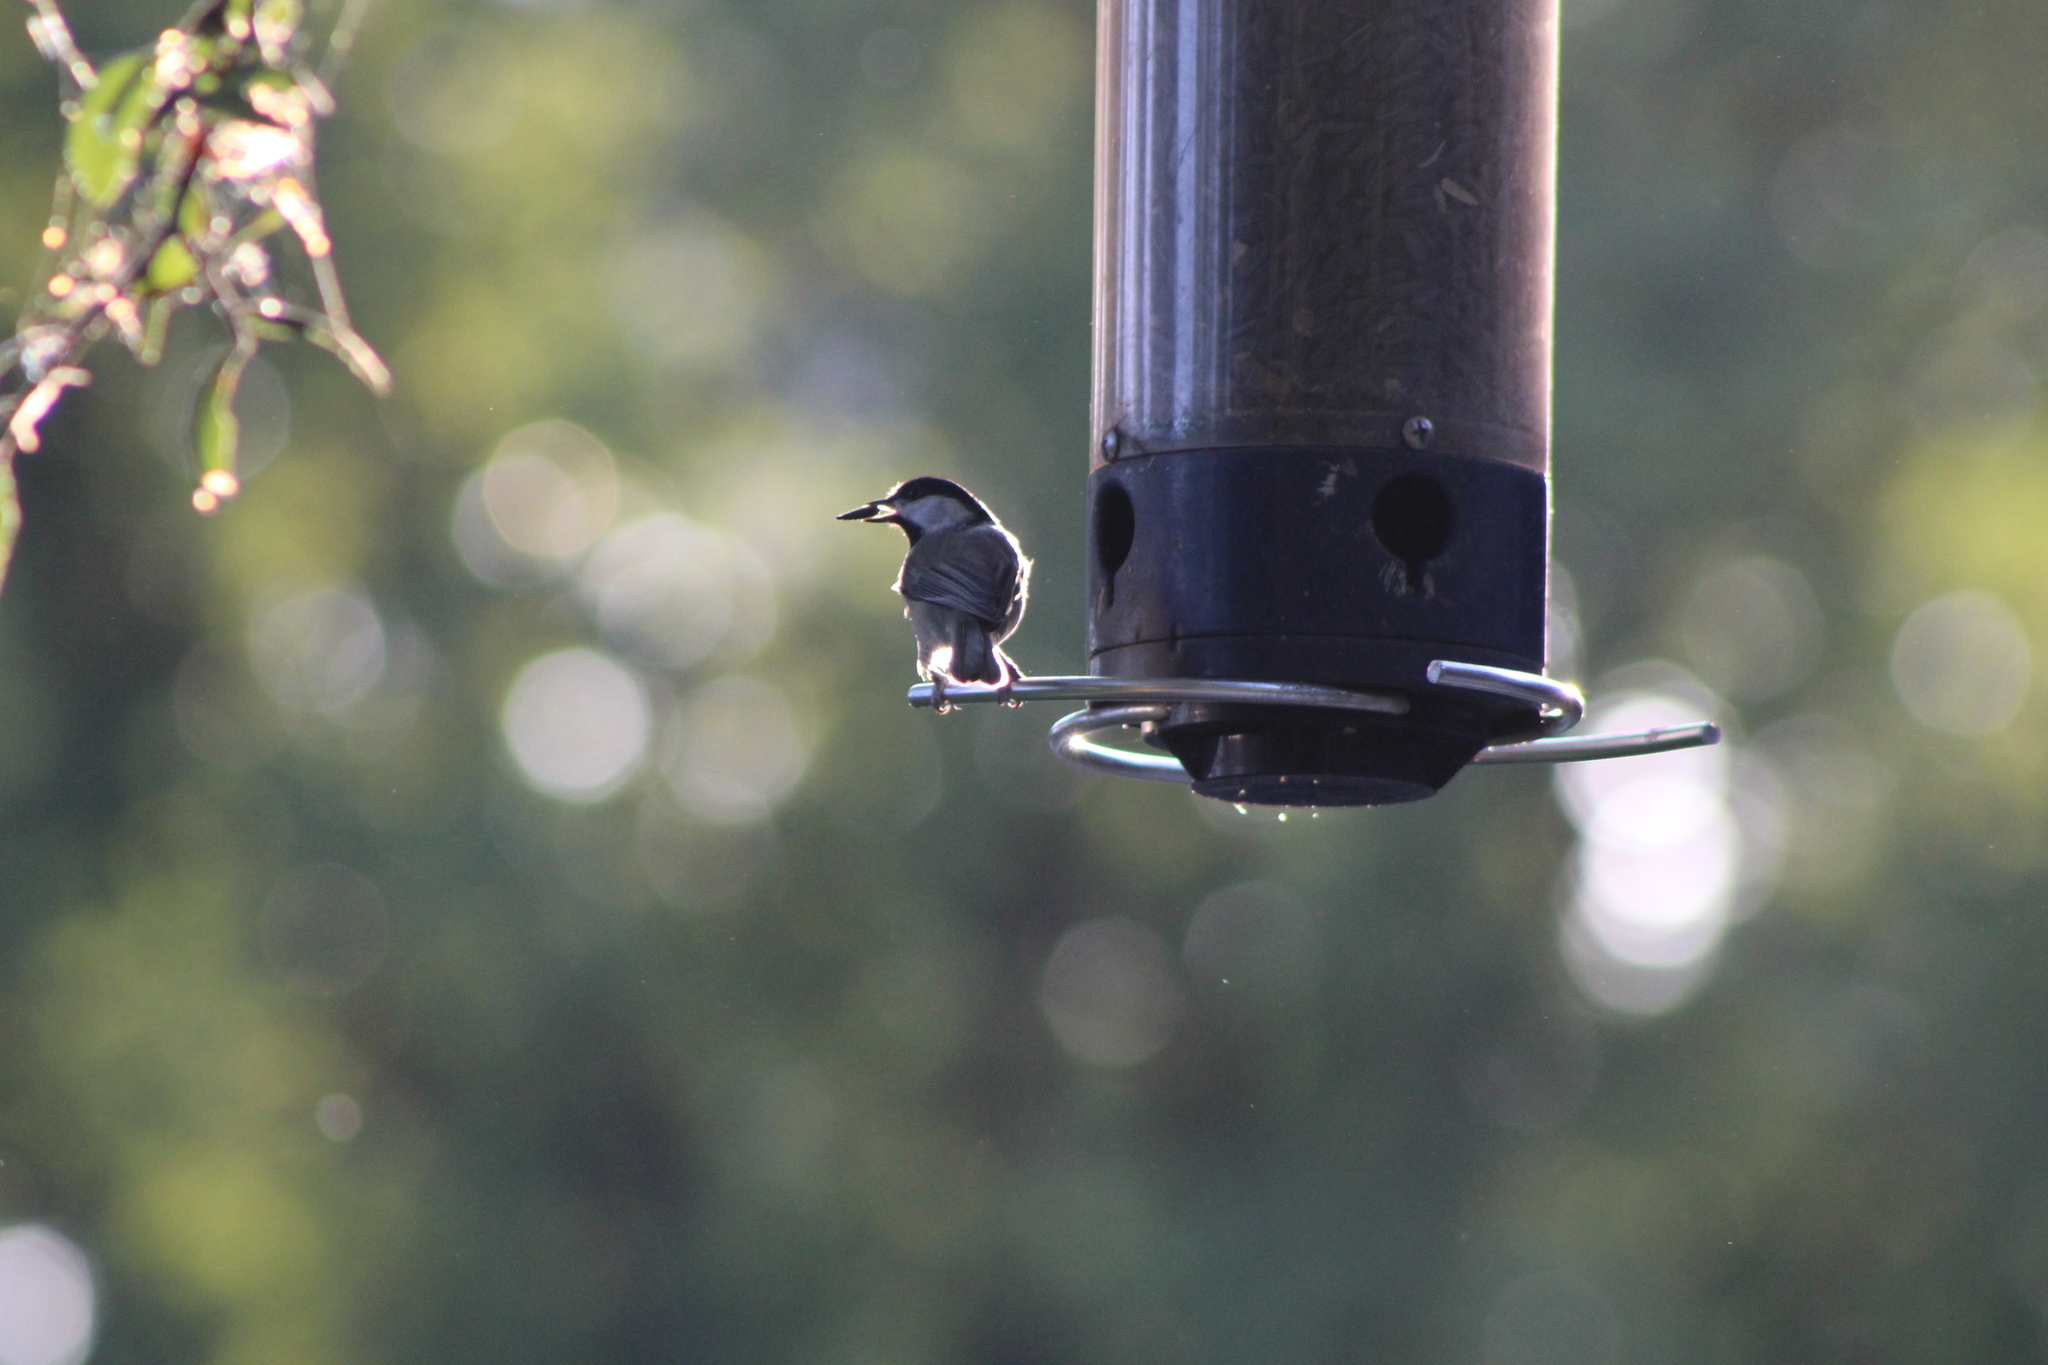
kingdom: Animalia
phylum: Chordata
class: Aves
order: Passeriformes
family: Paridae
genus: Poecile
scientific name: Poecile carolinensis
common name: Carolina chickadee
